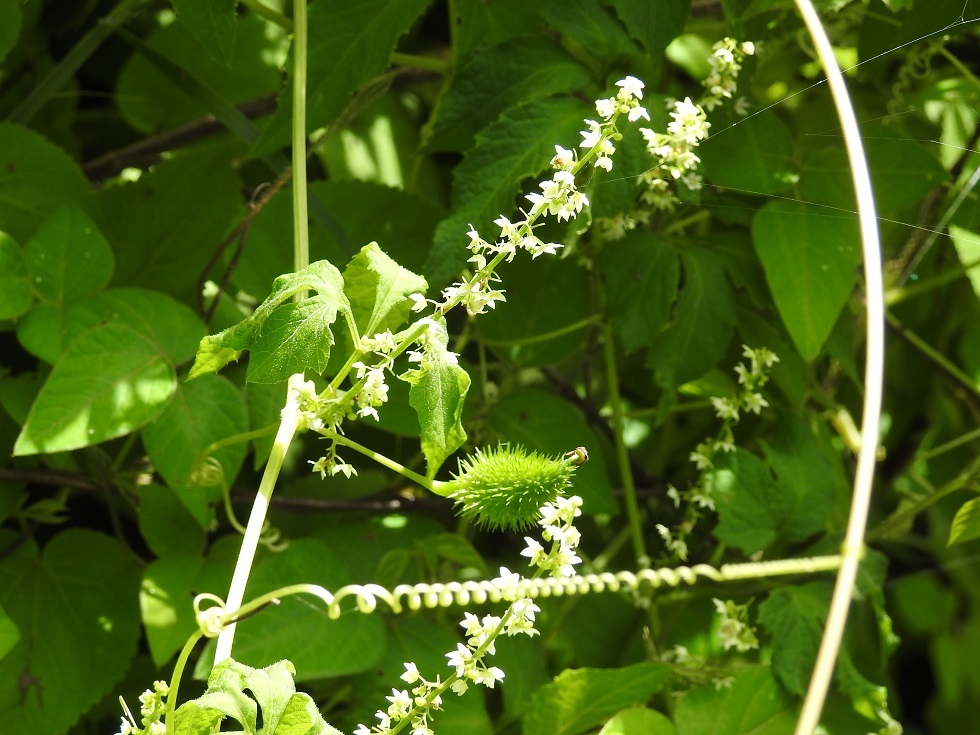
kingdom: Plantae
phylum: Tracheophyta
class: Magnoliopsida
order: Cucurbitales
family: Cucurbitaceae
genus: Cyclanthera
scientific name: Cyclanthera integrifoliola
